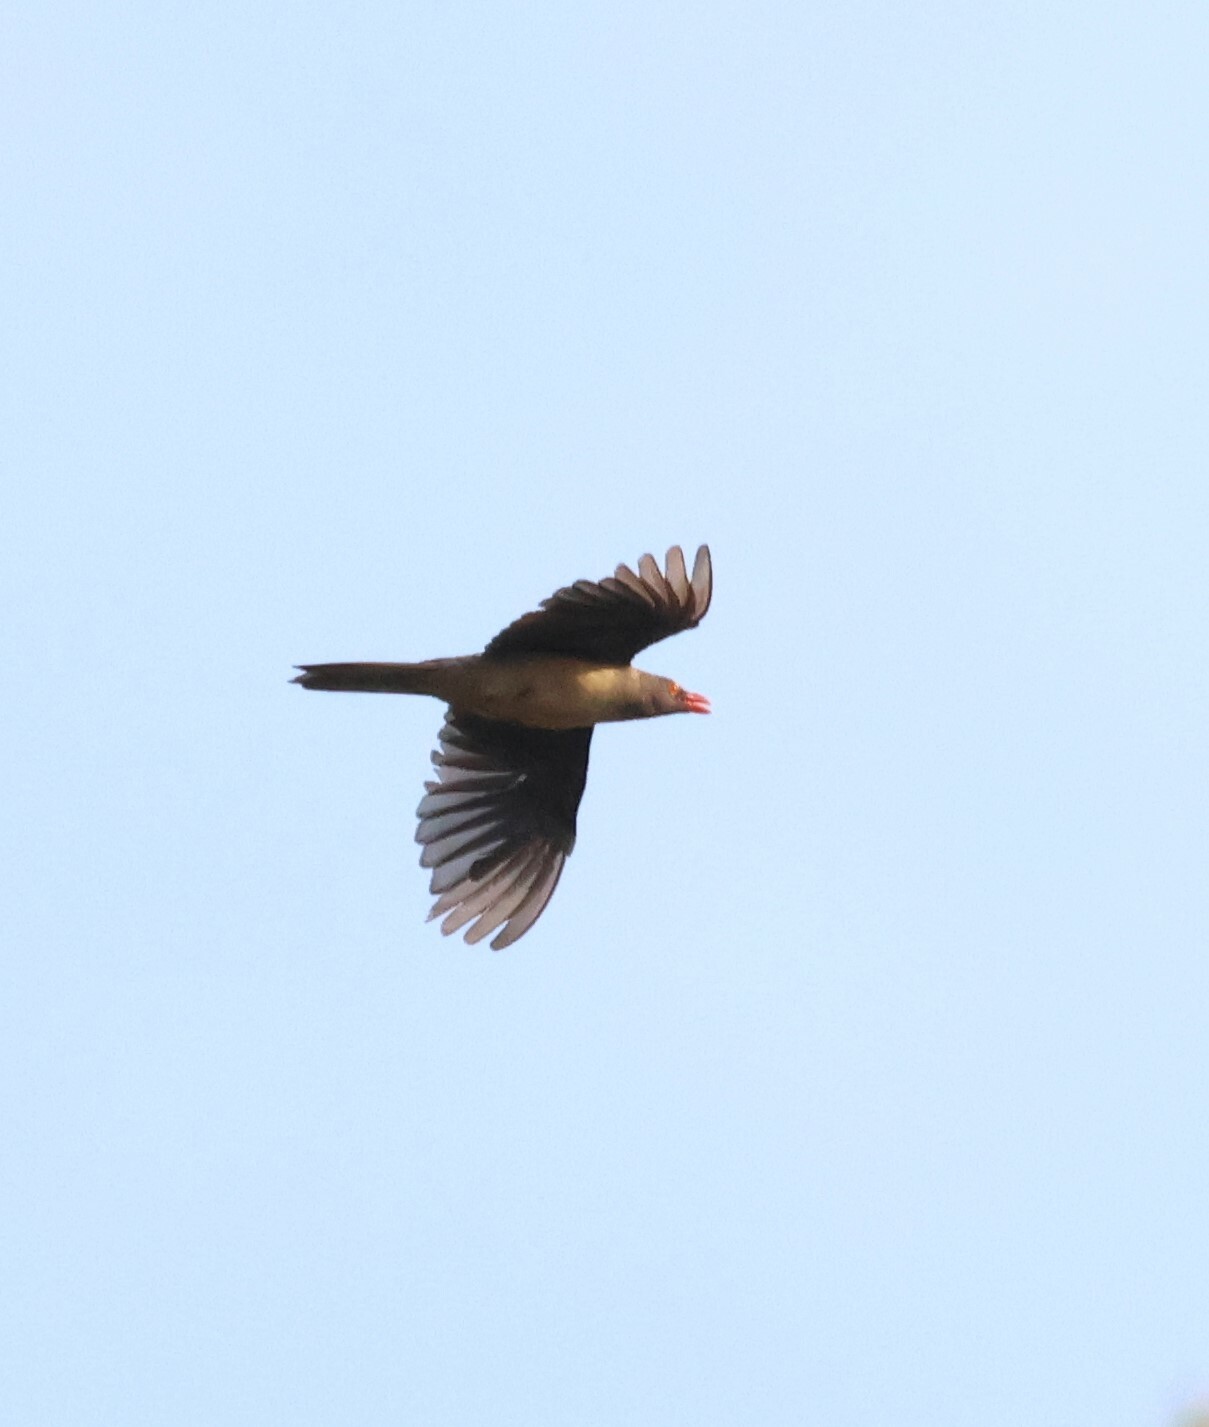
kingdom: Animalia
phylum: Chordata
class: Aves
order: Passeriformes
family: Buphagidae
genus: Buphagus
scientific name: Buphagus erythrorhynchus
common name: Red-billed oxpecker
